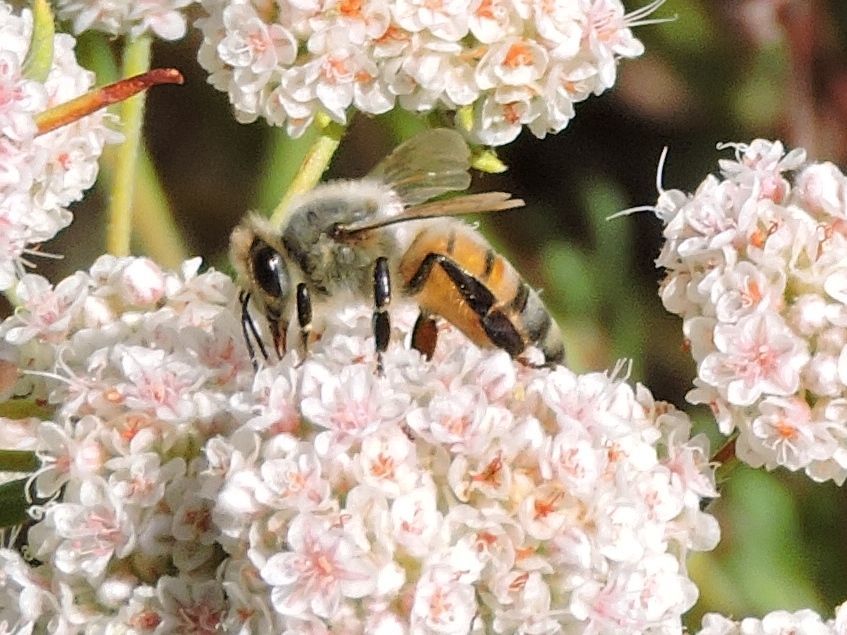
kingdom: Animalia
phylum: Arthropoda
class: Insecta
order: Hymenoptera
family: Apidae
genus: Apis
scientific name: Apis mellifera
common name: Honey bee
